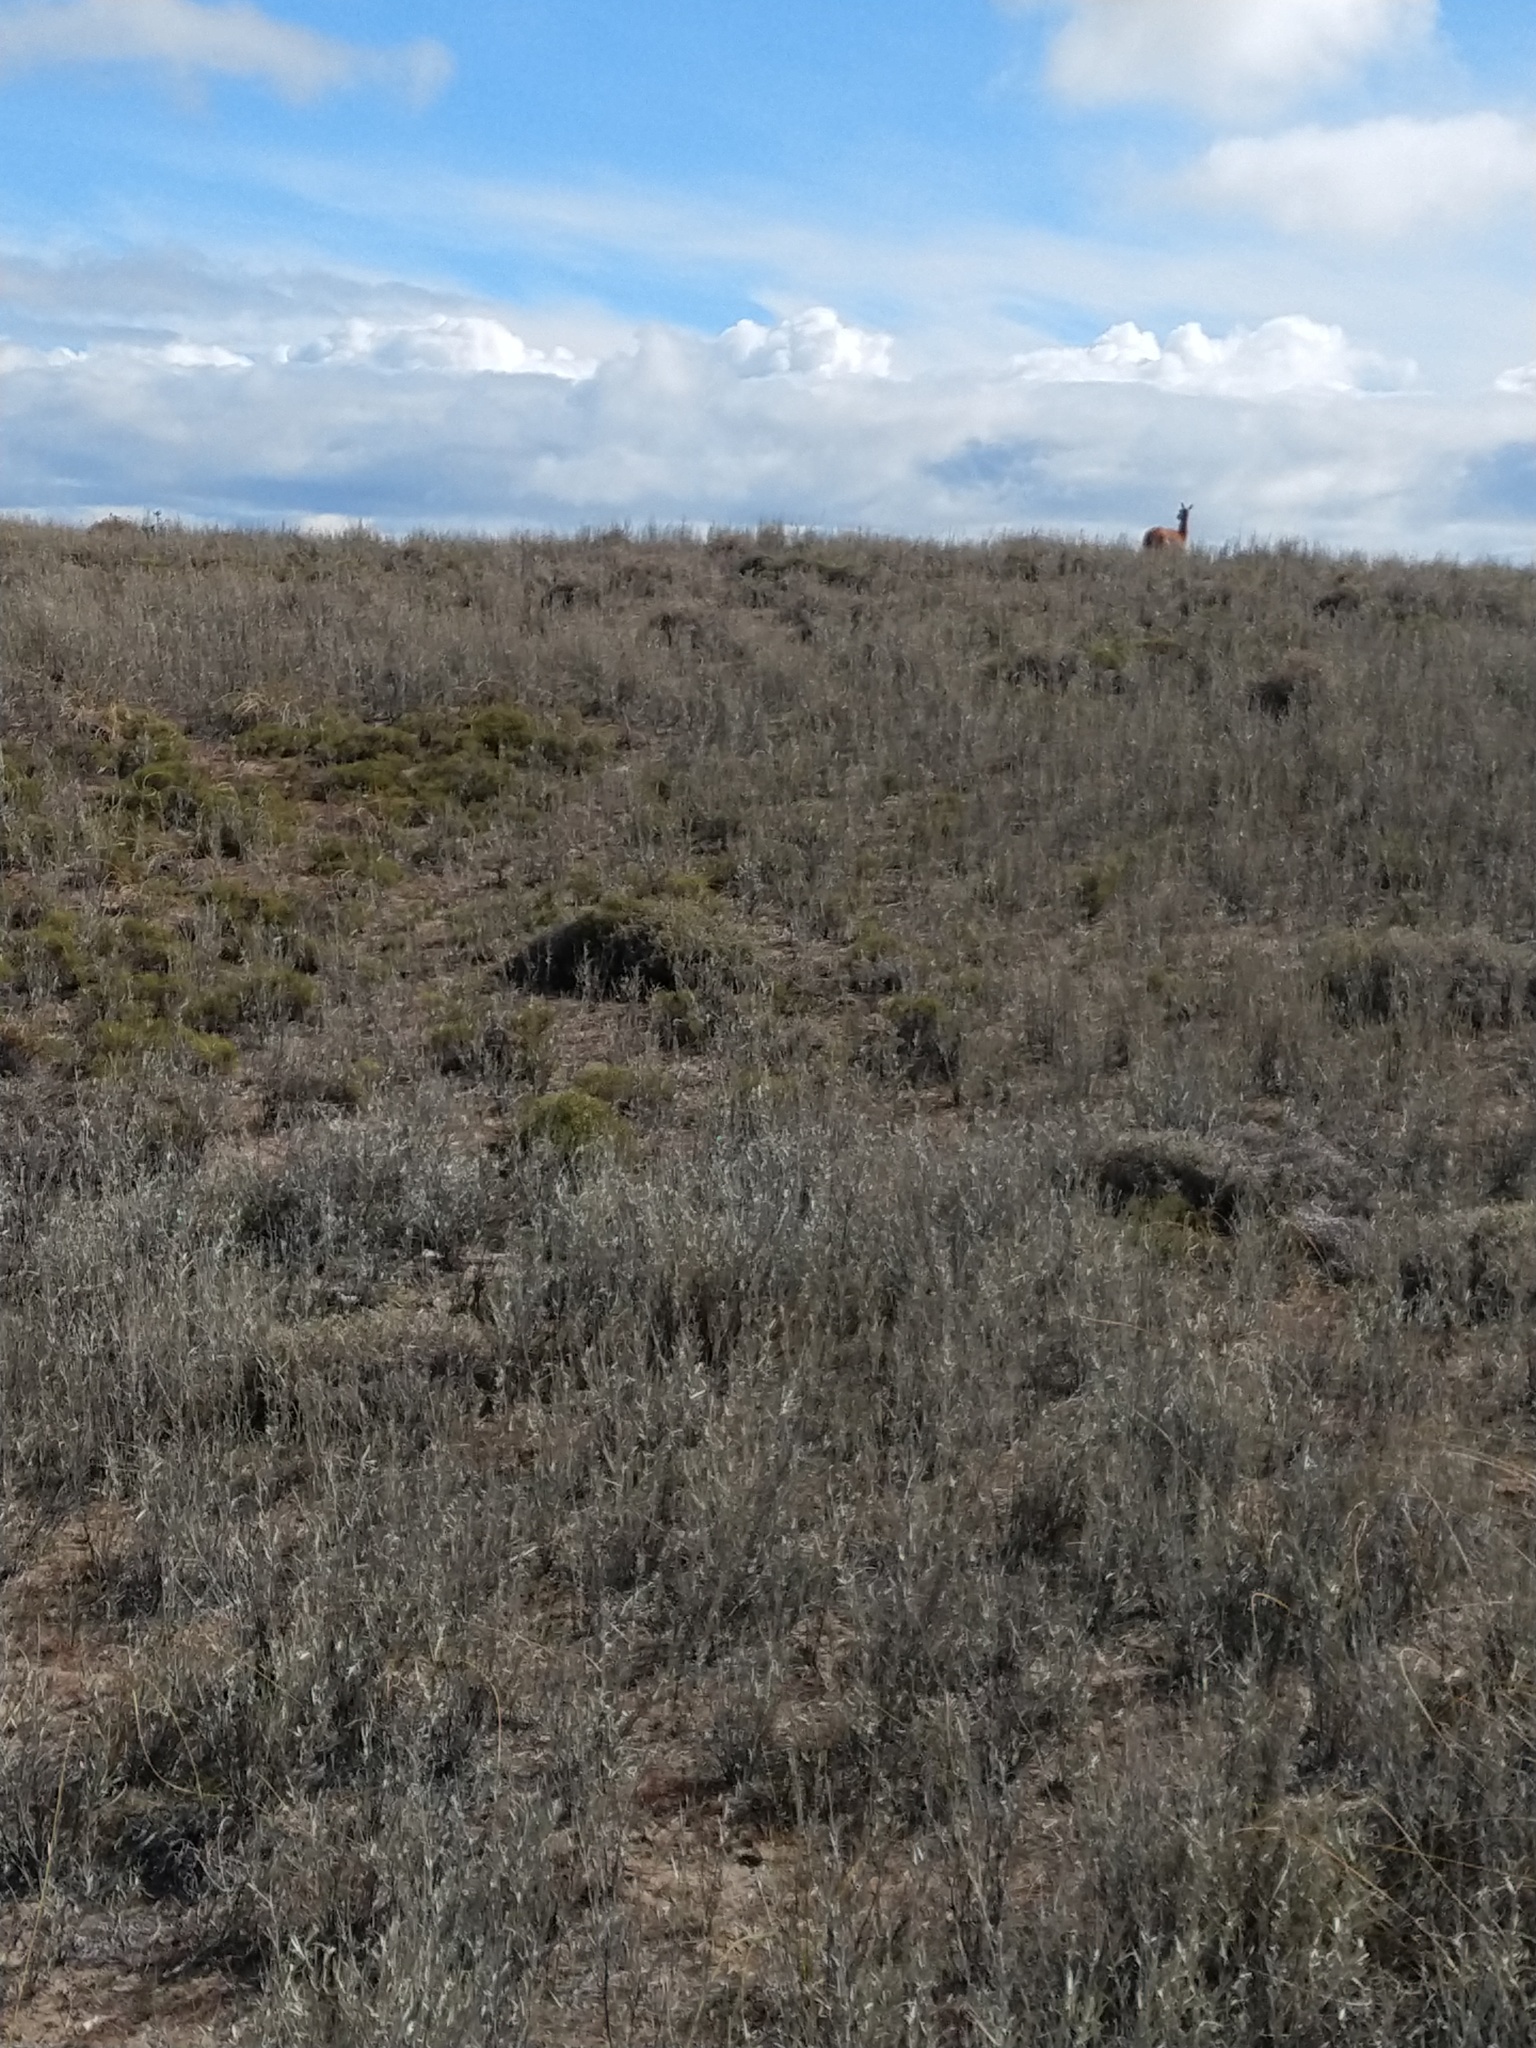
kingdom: Plantae
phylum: Tracheophyta
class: Magnoliopsida
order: Asterales
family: Asteraceae
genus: Hyalis
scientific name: Hyalis argentea
